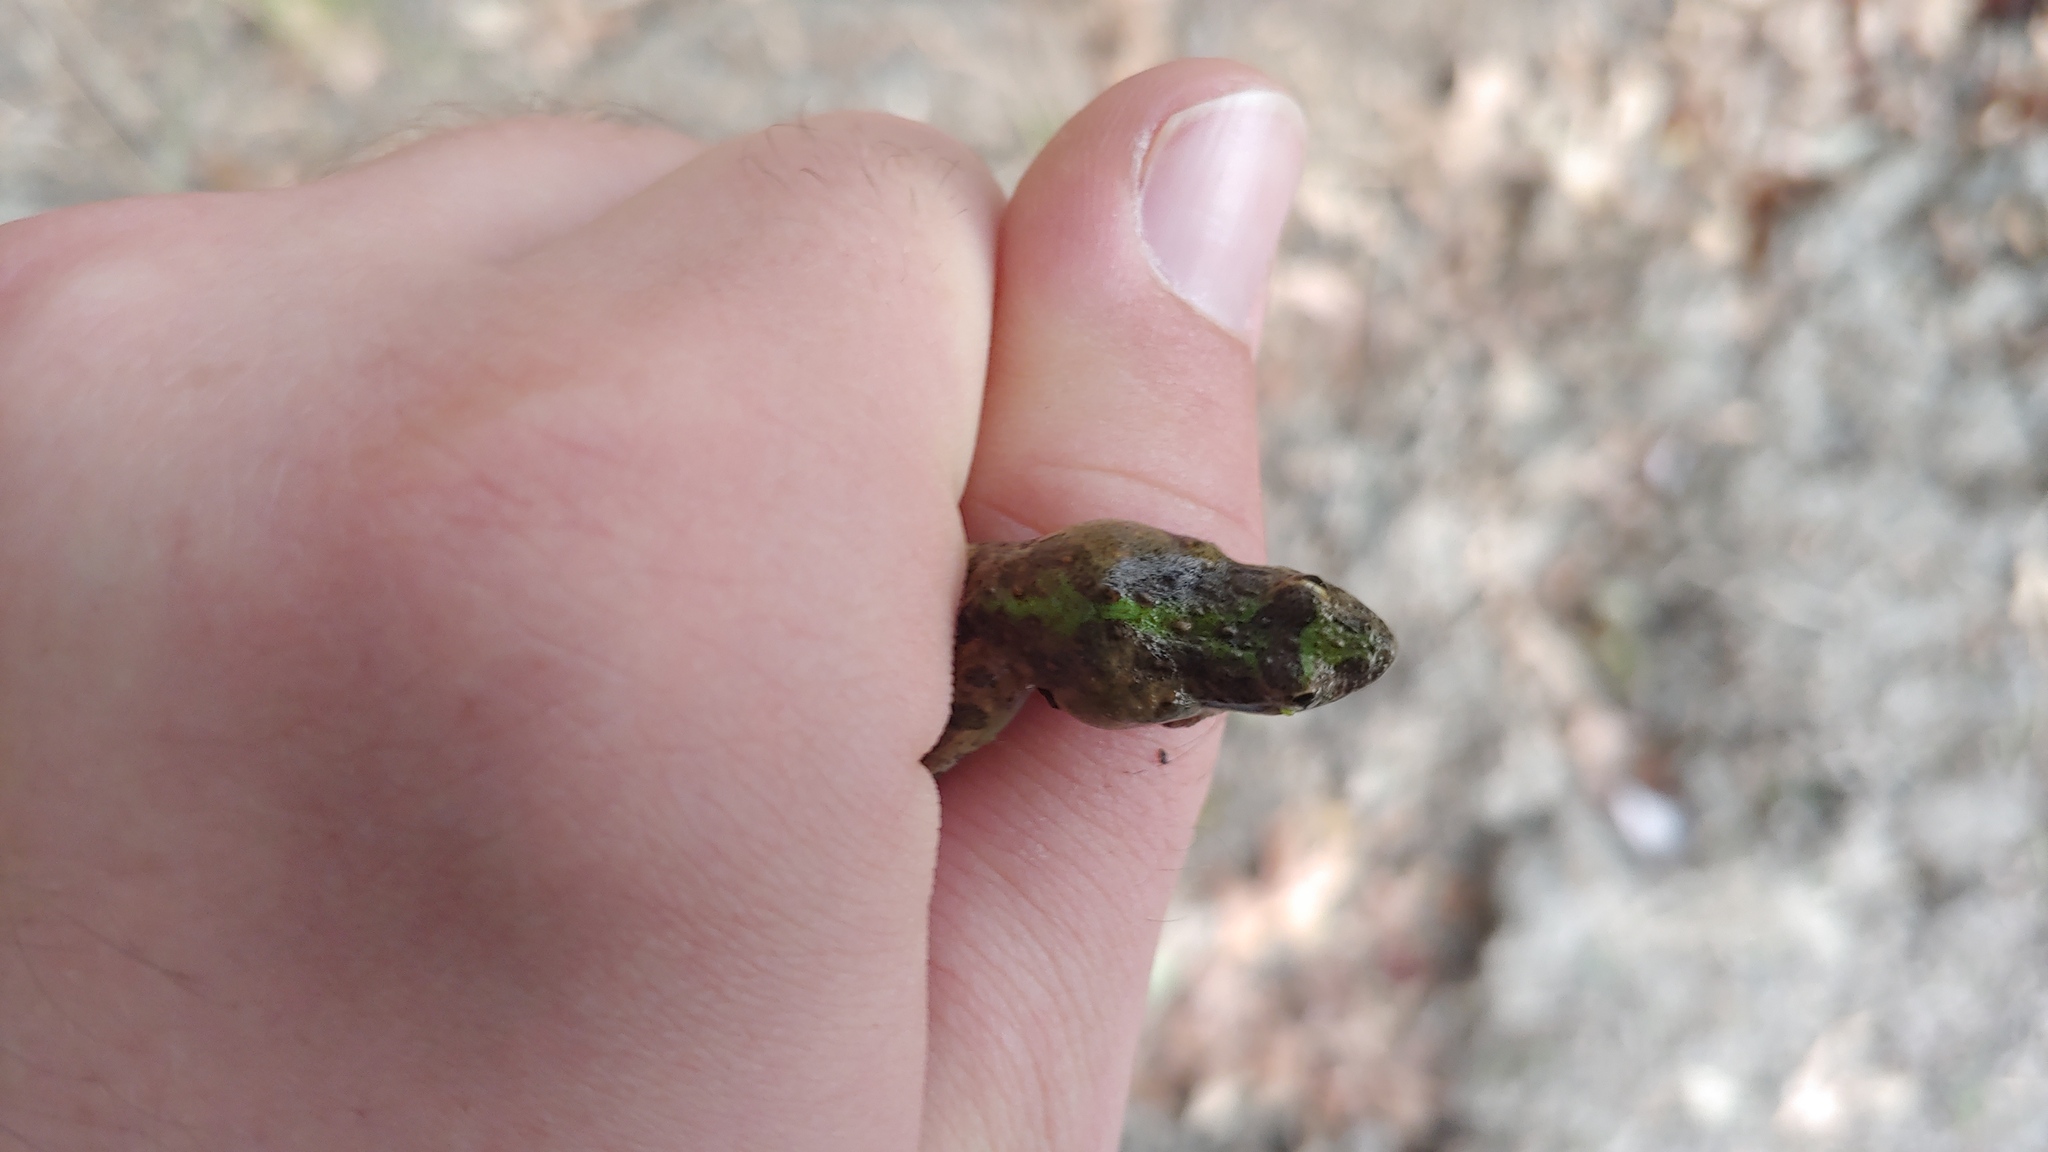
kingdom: Animalia
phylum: Chordata
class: Amphibia
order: Anura
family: Hylidae
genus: Acris
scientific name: Acris blanchardi
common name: Blanchard's cricket frog
